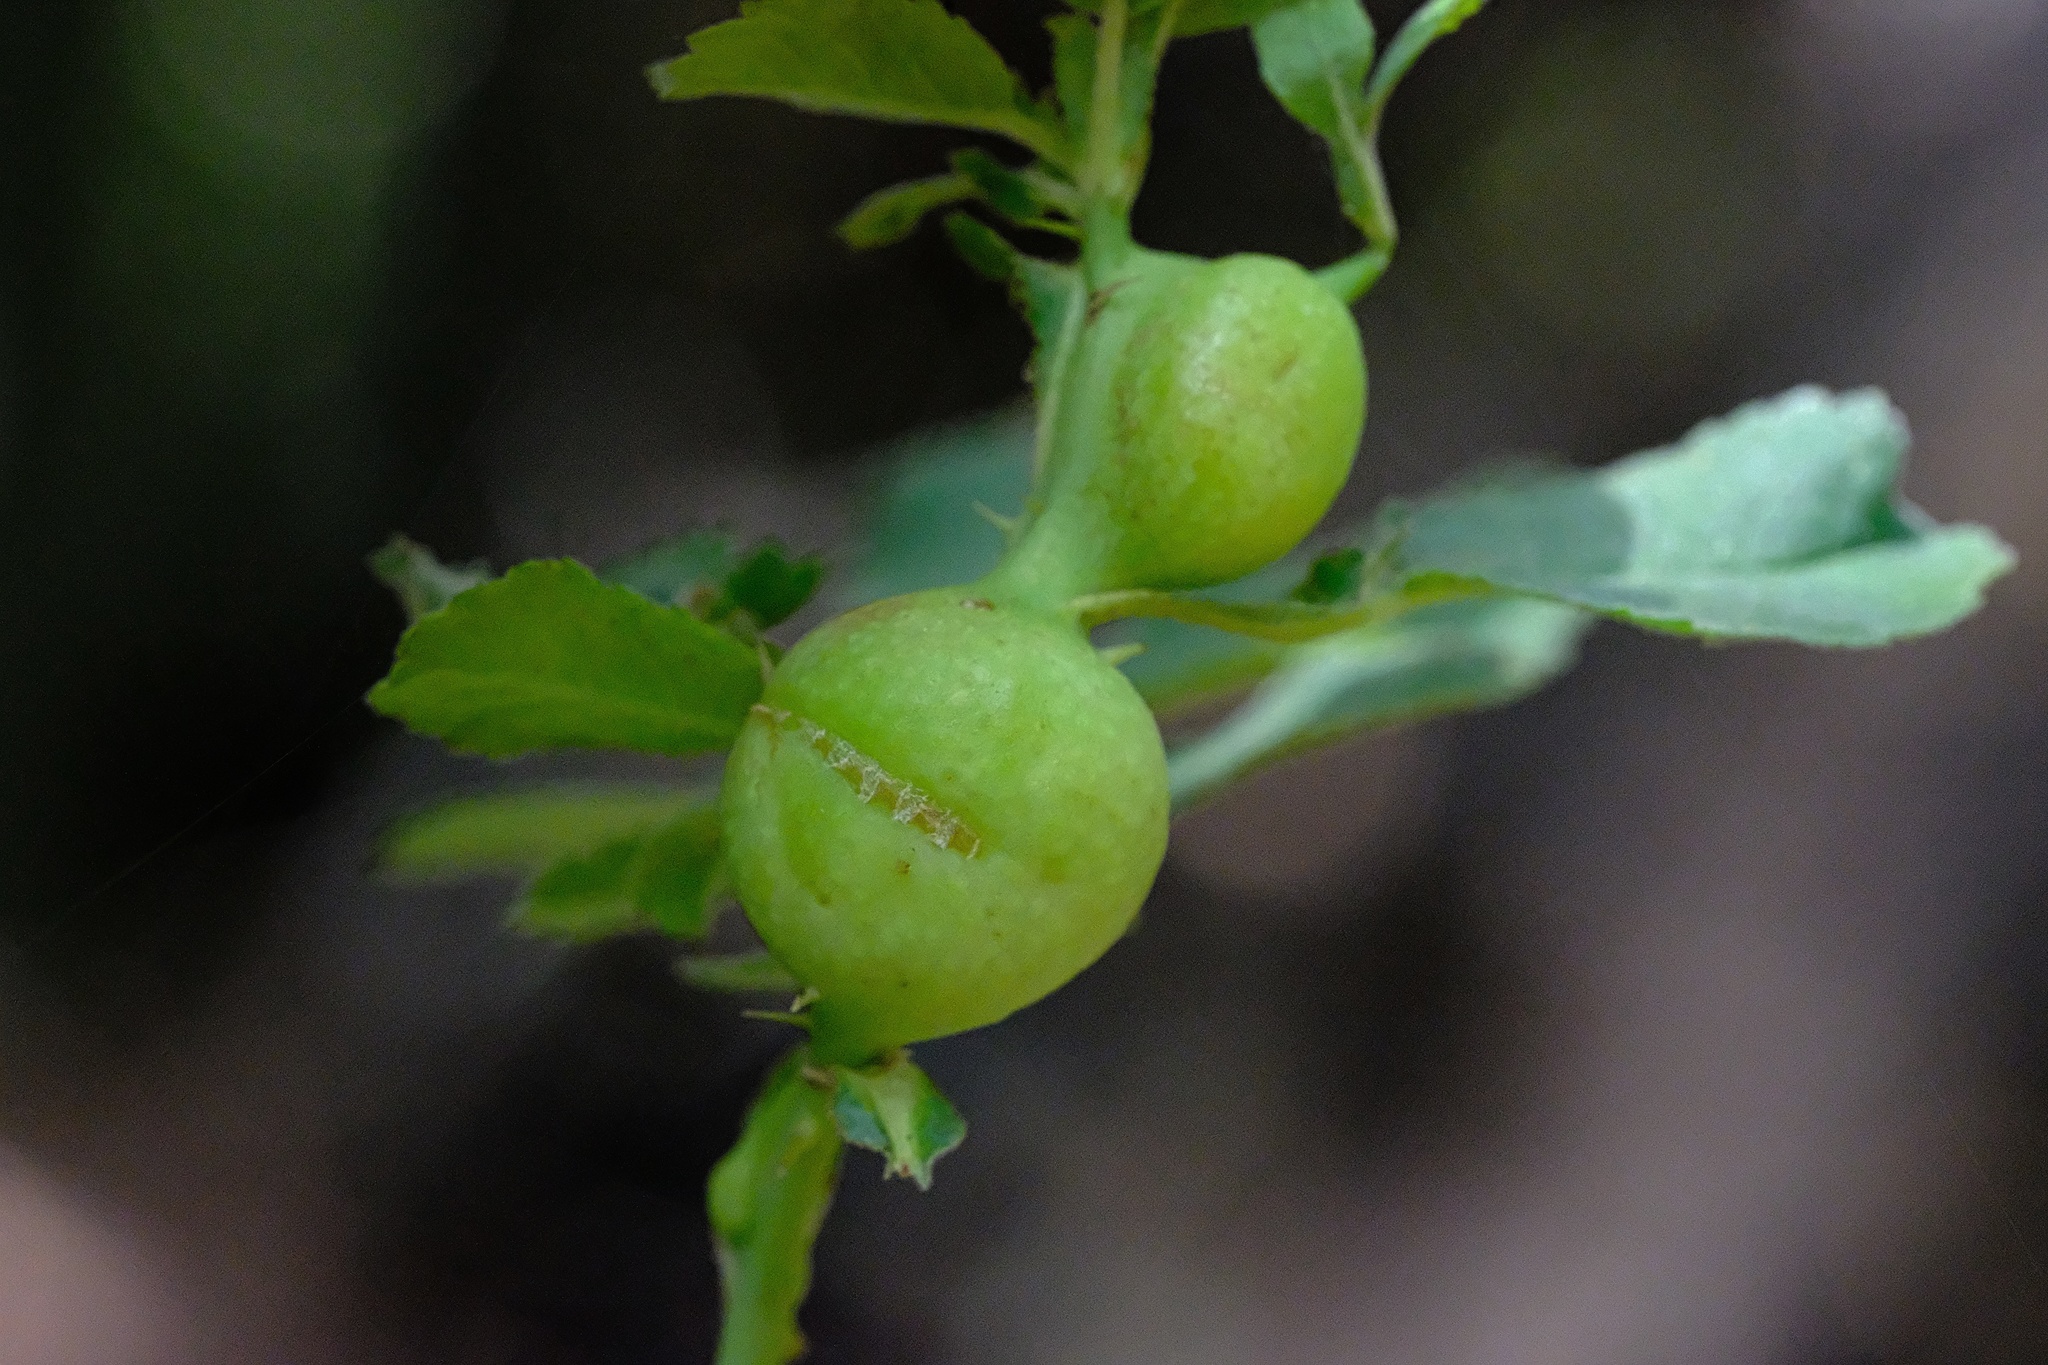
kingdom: Animalia
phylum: Arthropoda
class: Insecta
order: Hymenoptera
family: Cynipidae
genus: Diplolepis
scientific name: Diplolepis nodulosa
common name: Rose stem gall wasp
